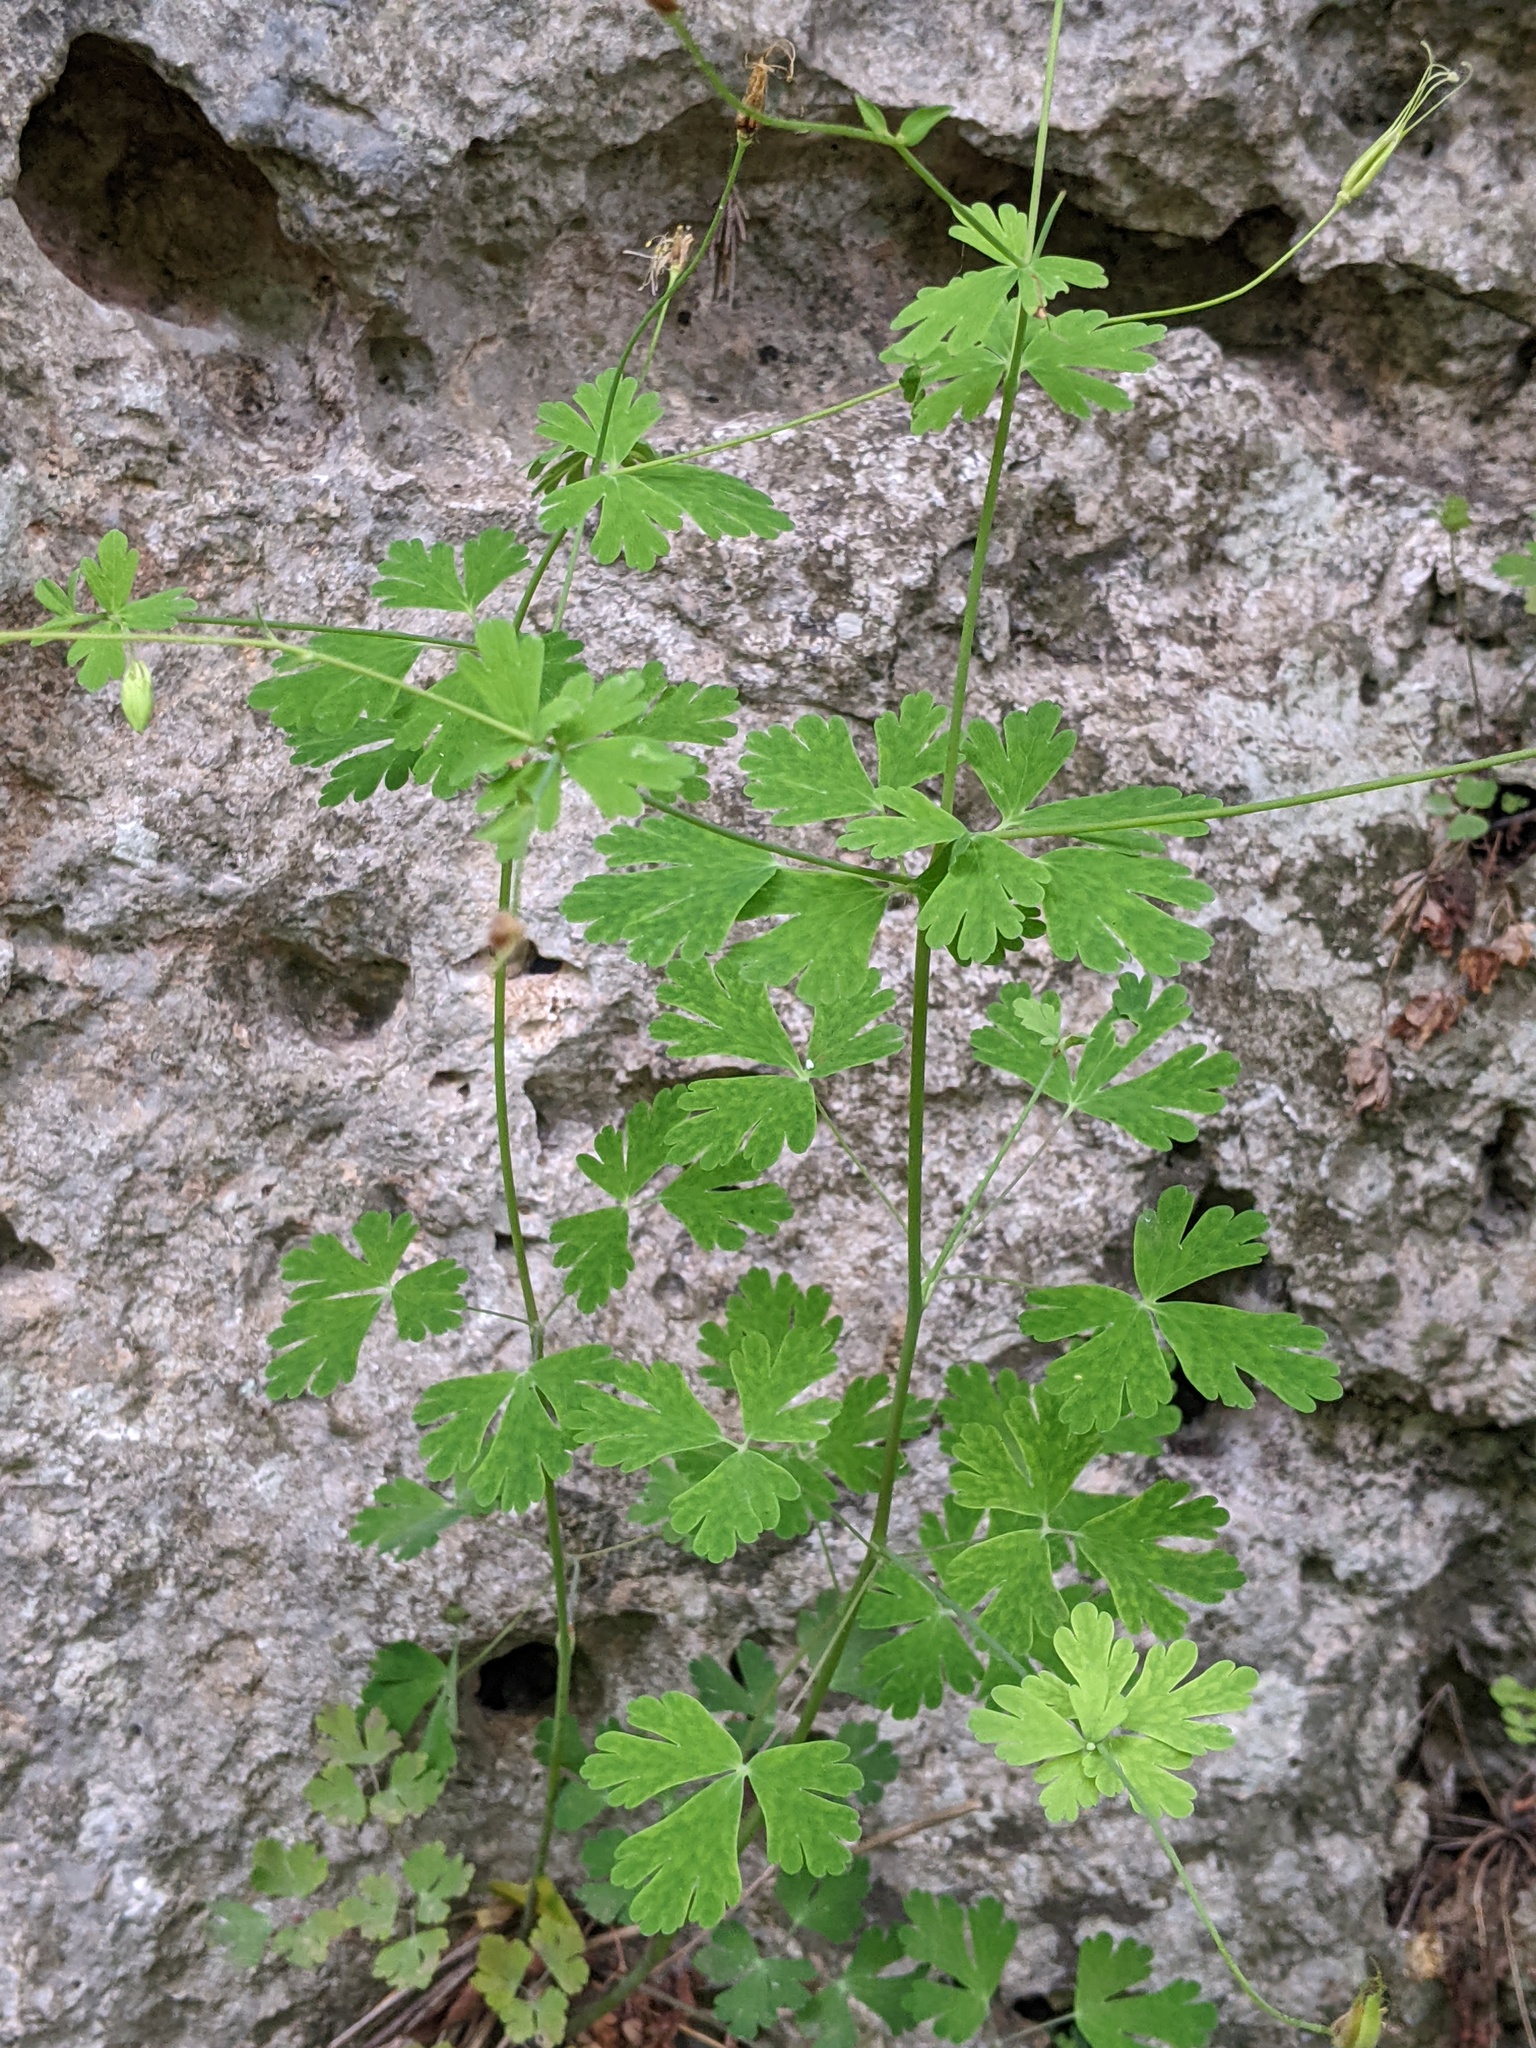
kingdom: Plantae
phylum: Tracheophyta
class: Magnoliopsida
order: Ranunculales
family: Ranunculaceae
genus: Aquilegia
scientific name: Aquilegia canadensis
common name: American columbine
